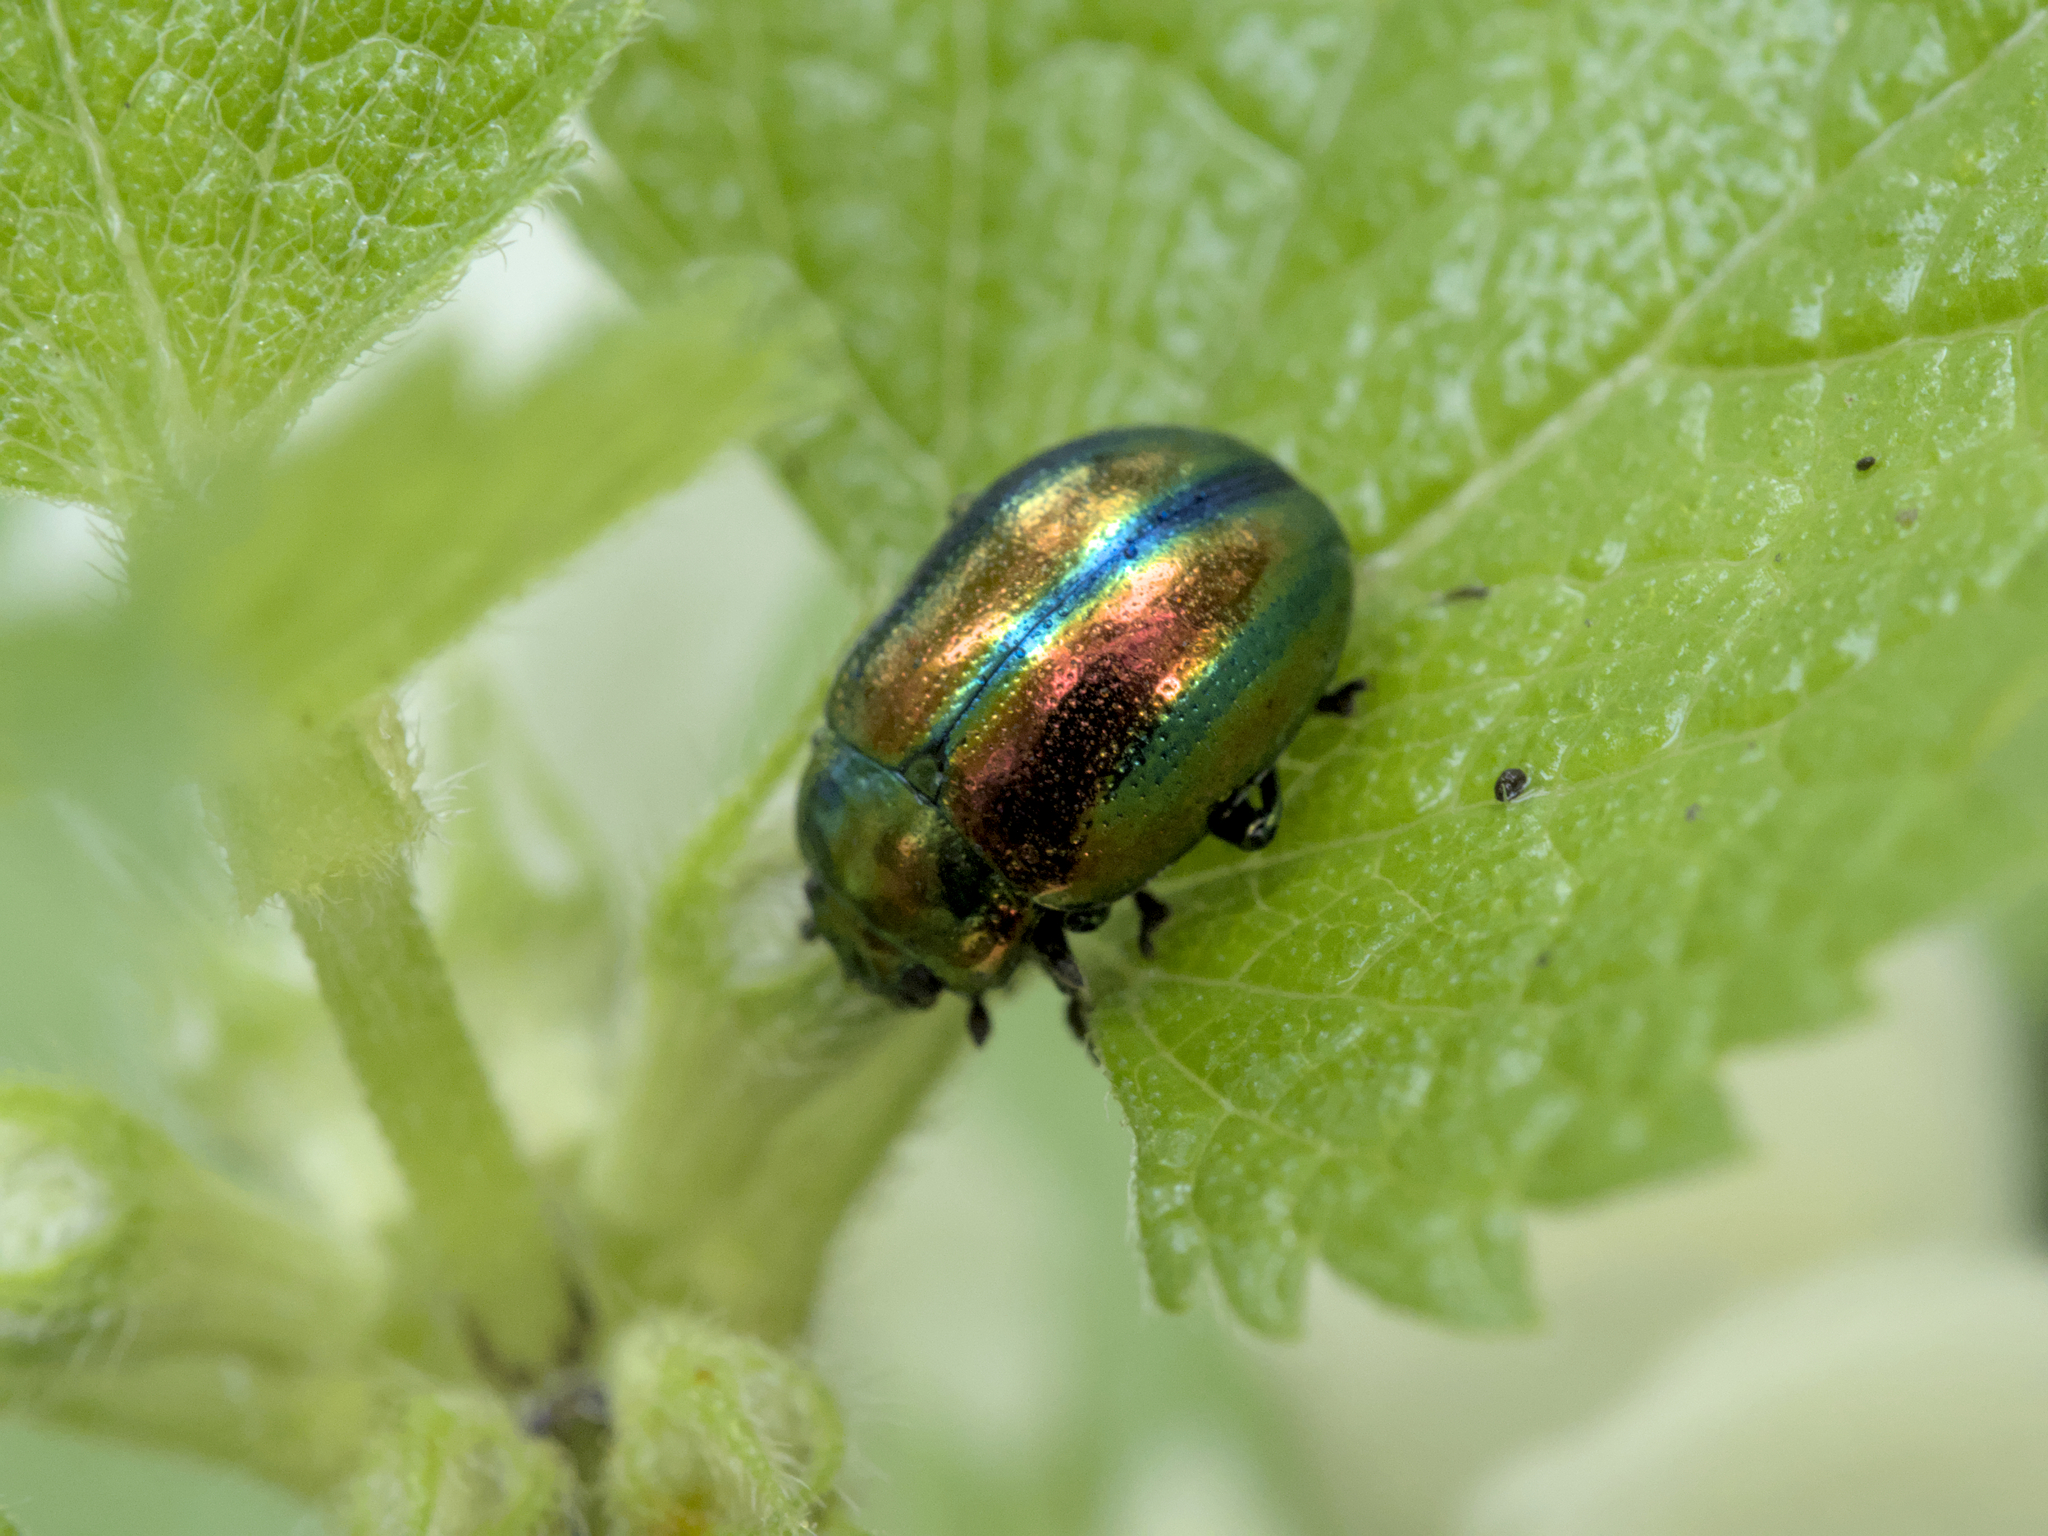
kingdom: Animalia
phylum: Arthropoda
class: Insecta
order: Coleoptera
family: Chrysomelidae
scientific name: Chrysomelidae
